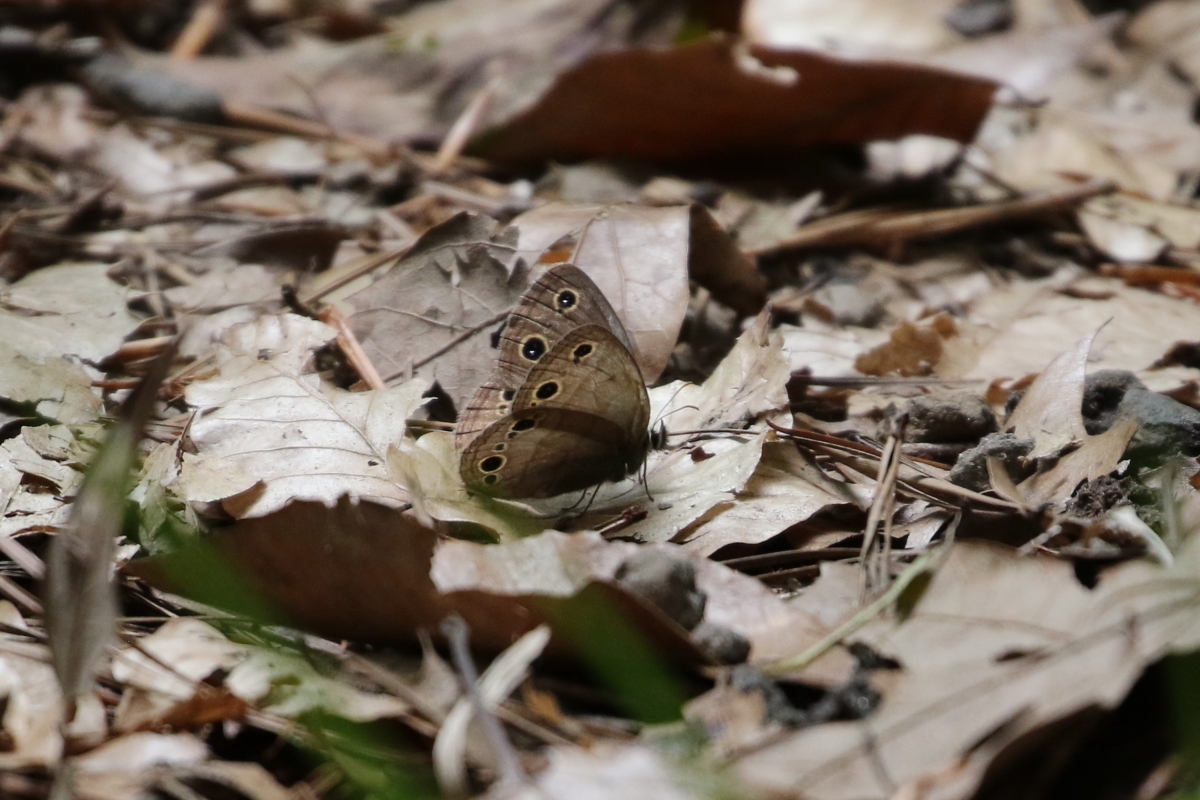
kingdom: Animalia
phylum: Arthropoda
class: Insecta
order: Lepidoptera
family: Nymphalidae
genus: Euptychia
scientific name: Euptychia cymela
